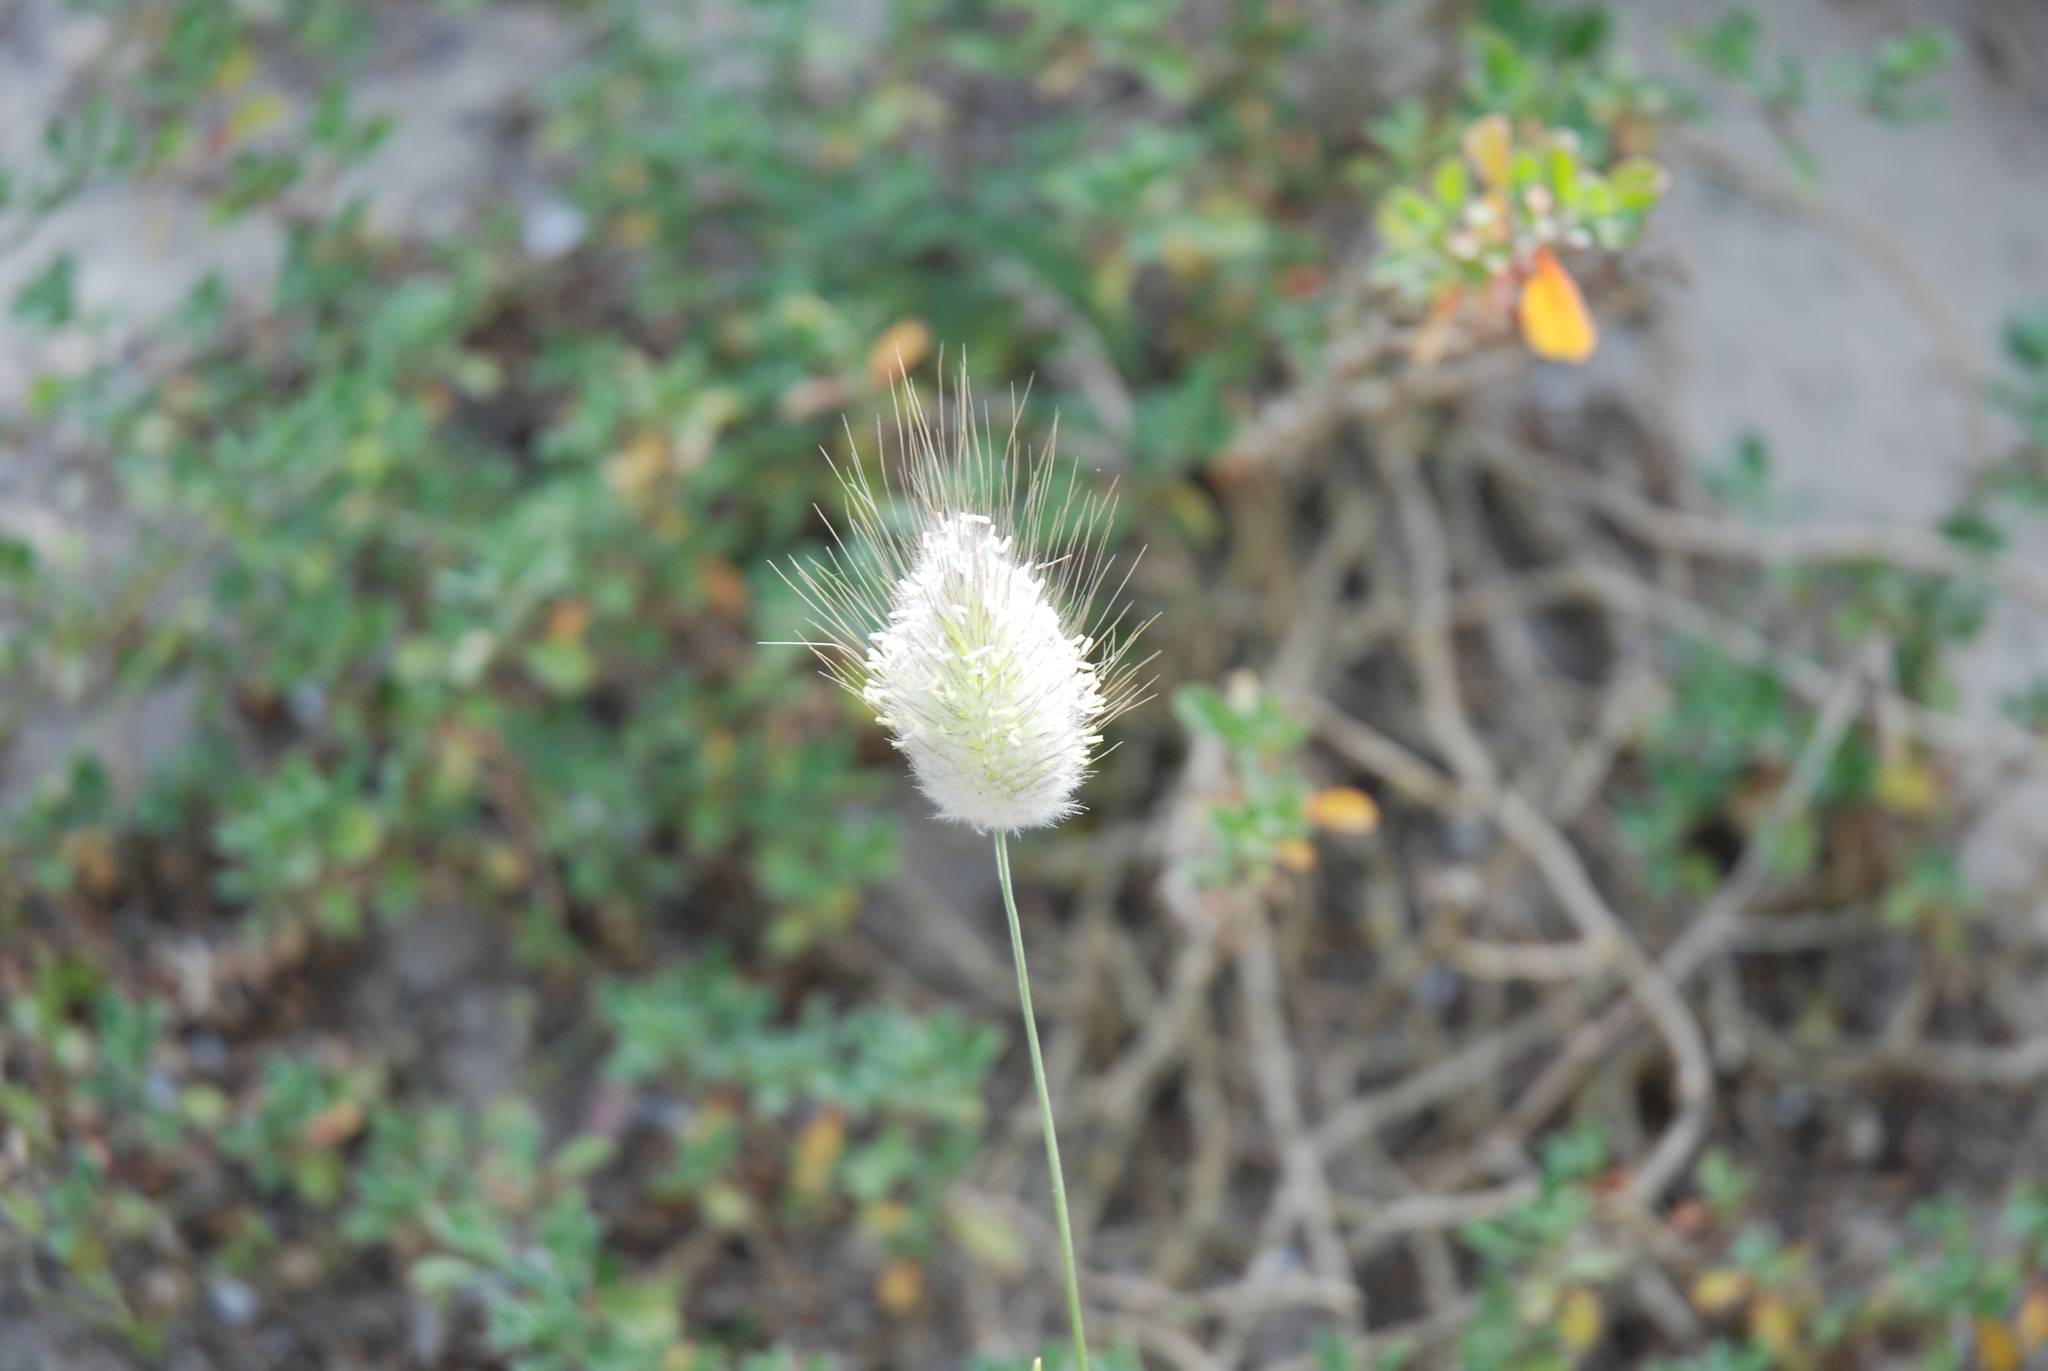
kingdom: Plantae
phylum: Tracheophyta
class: Liliopsida
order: Poales
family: Poaceae
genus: Lagurus
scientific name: Lagurus ovatus
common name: Hare's-tail
